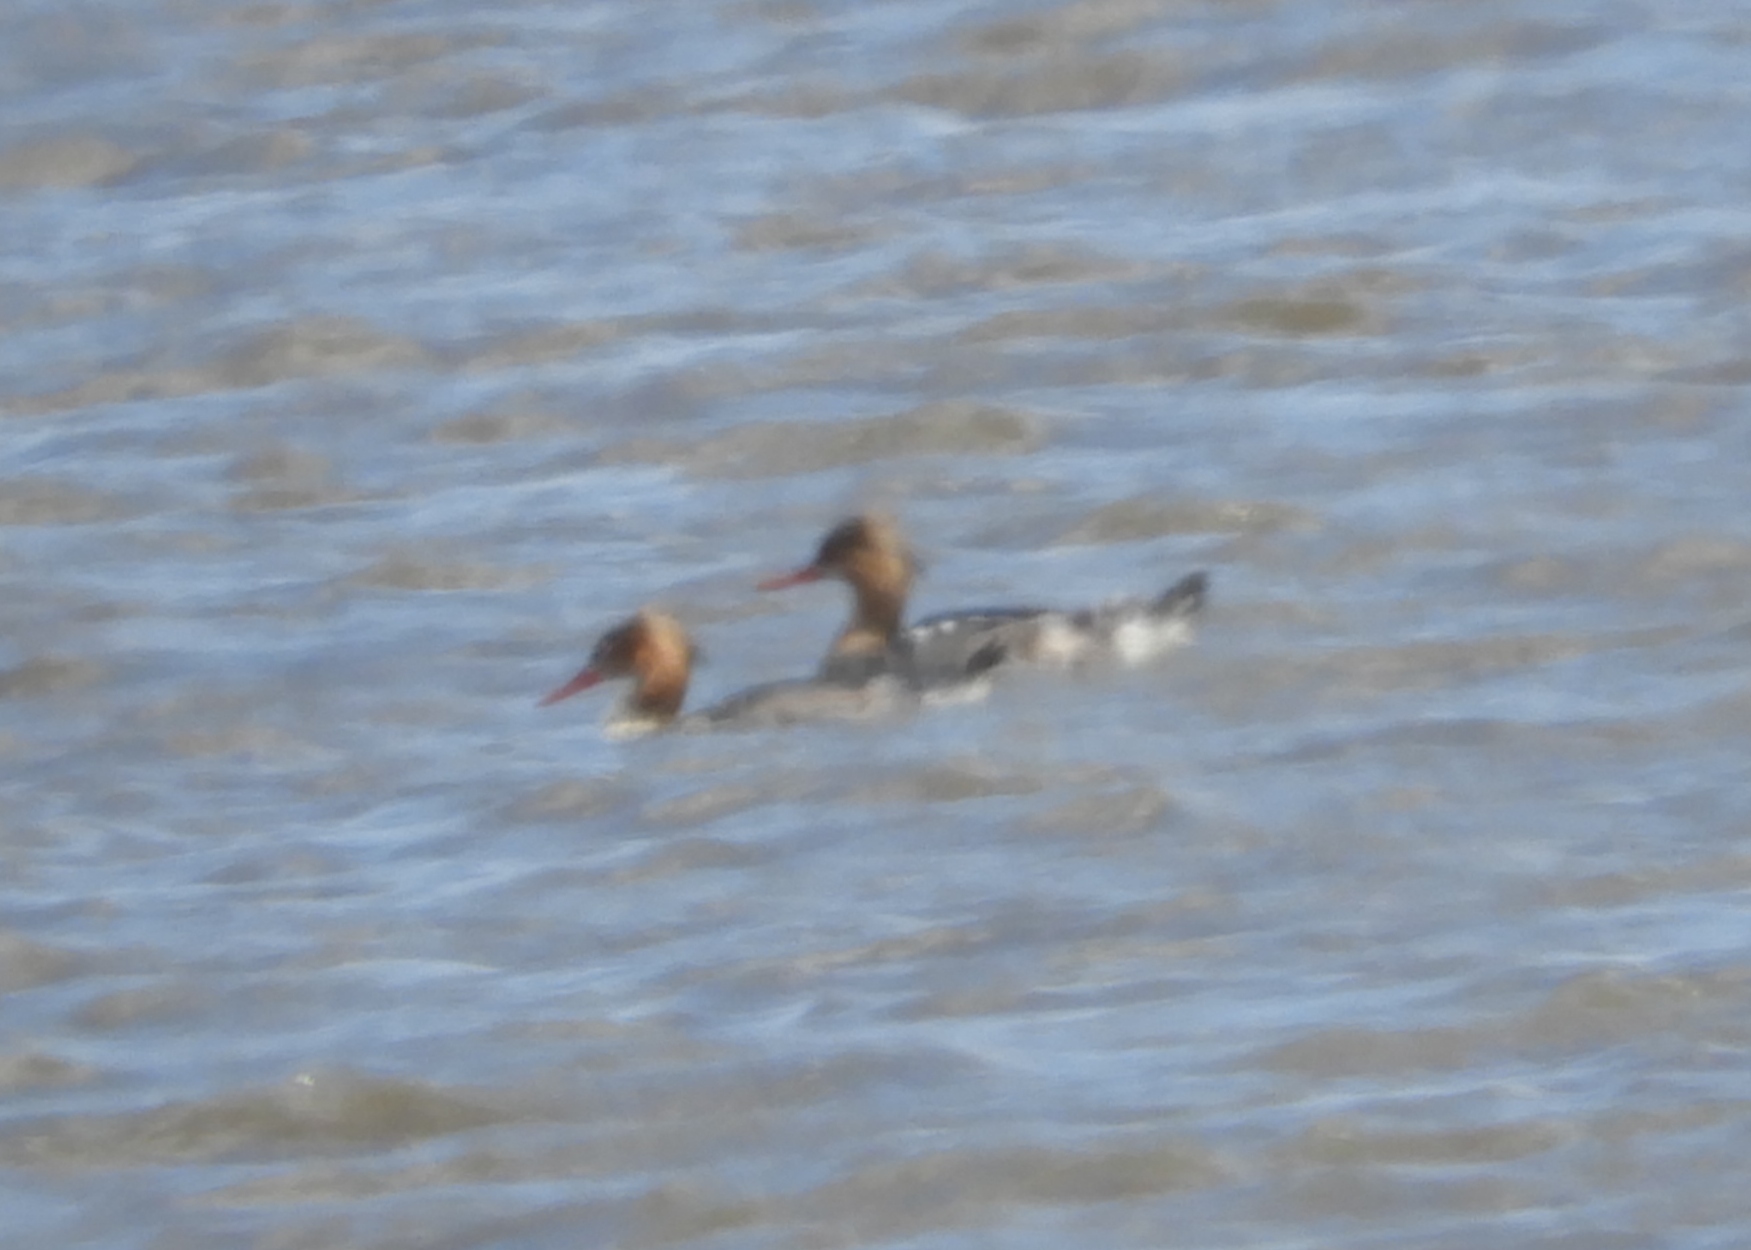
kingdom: Animalia
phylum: Chordata
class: Aves
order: Anseriformes
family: Anatidae
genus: Mergus
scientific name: Mergus serrator
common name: Red-breasted merganser
